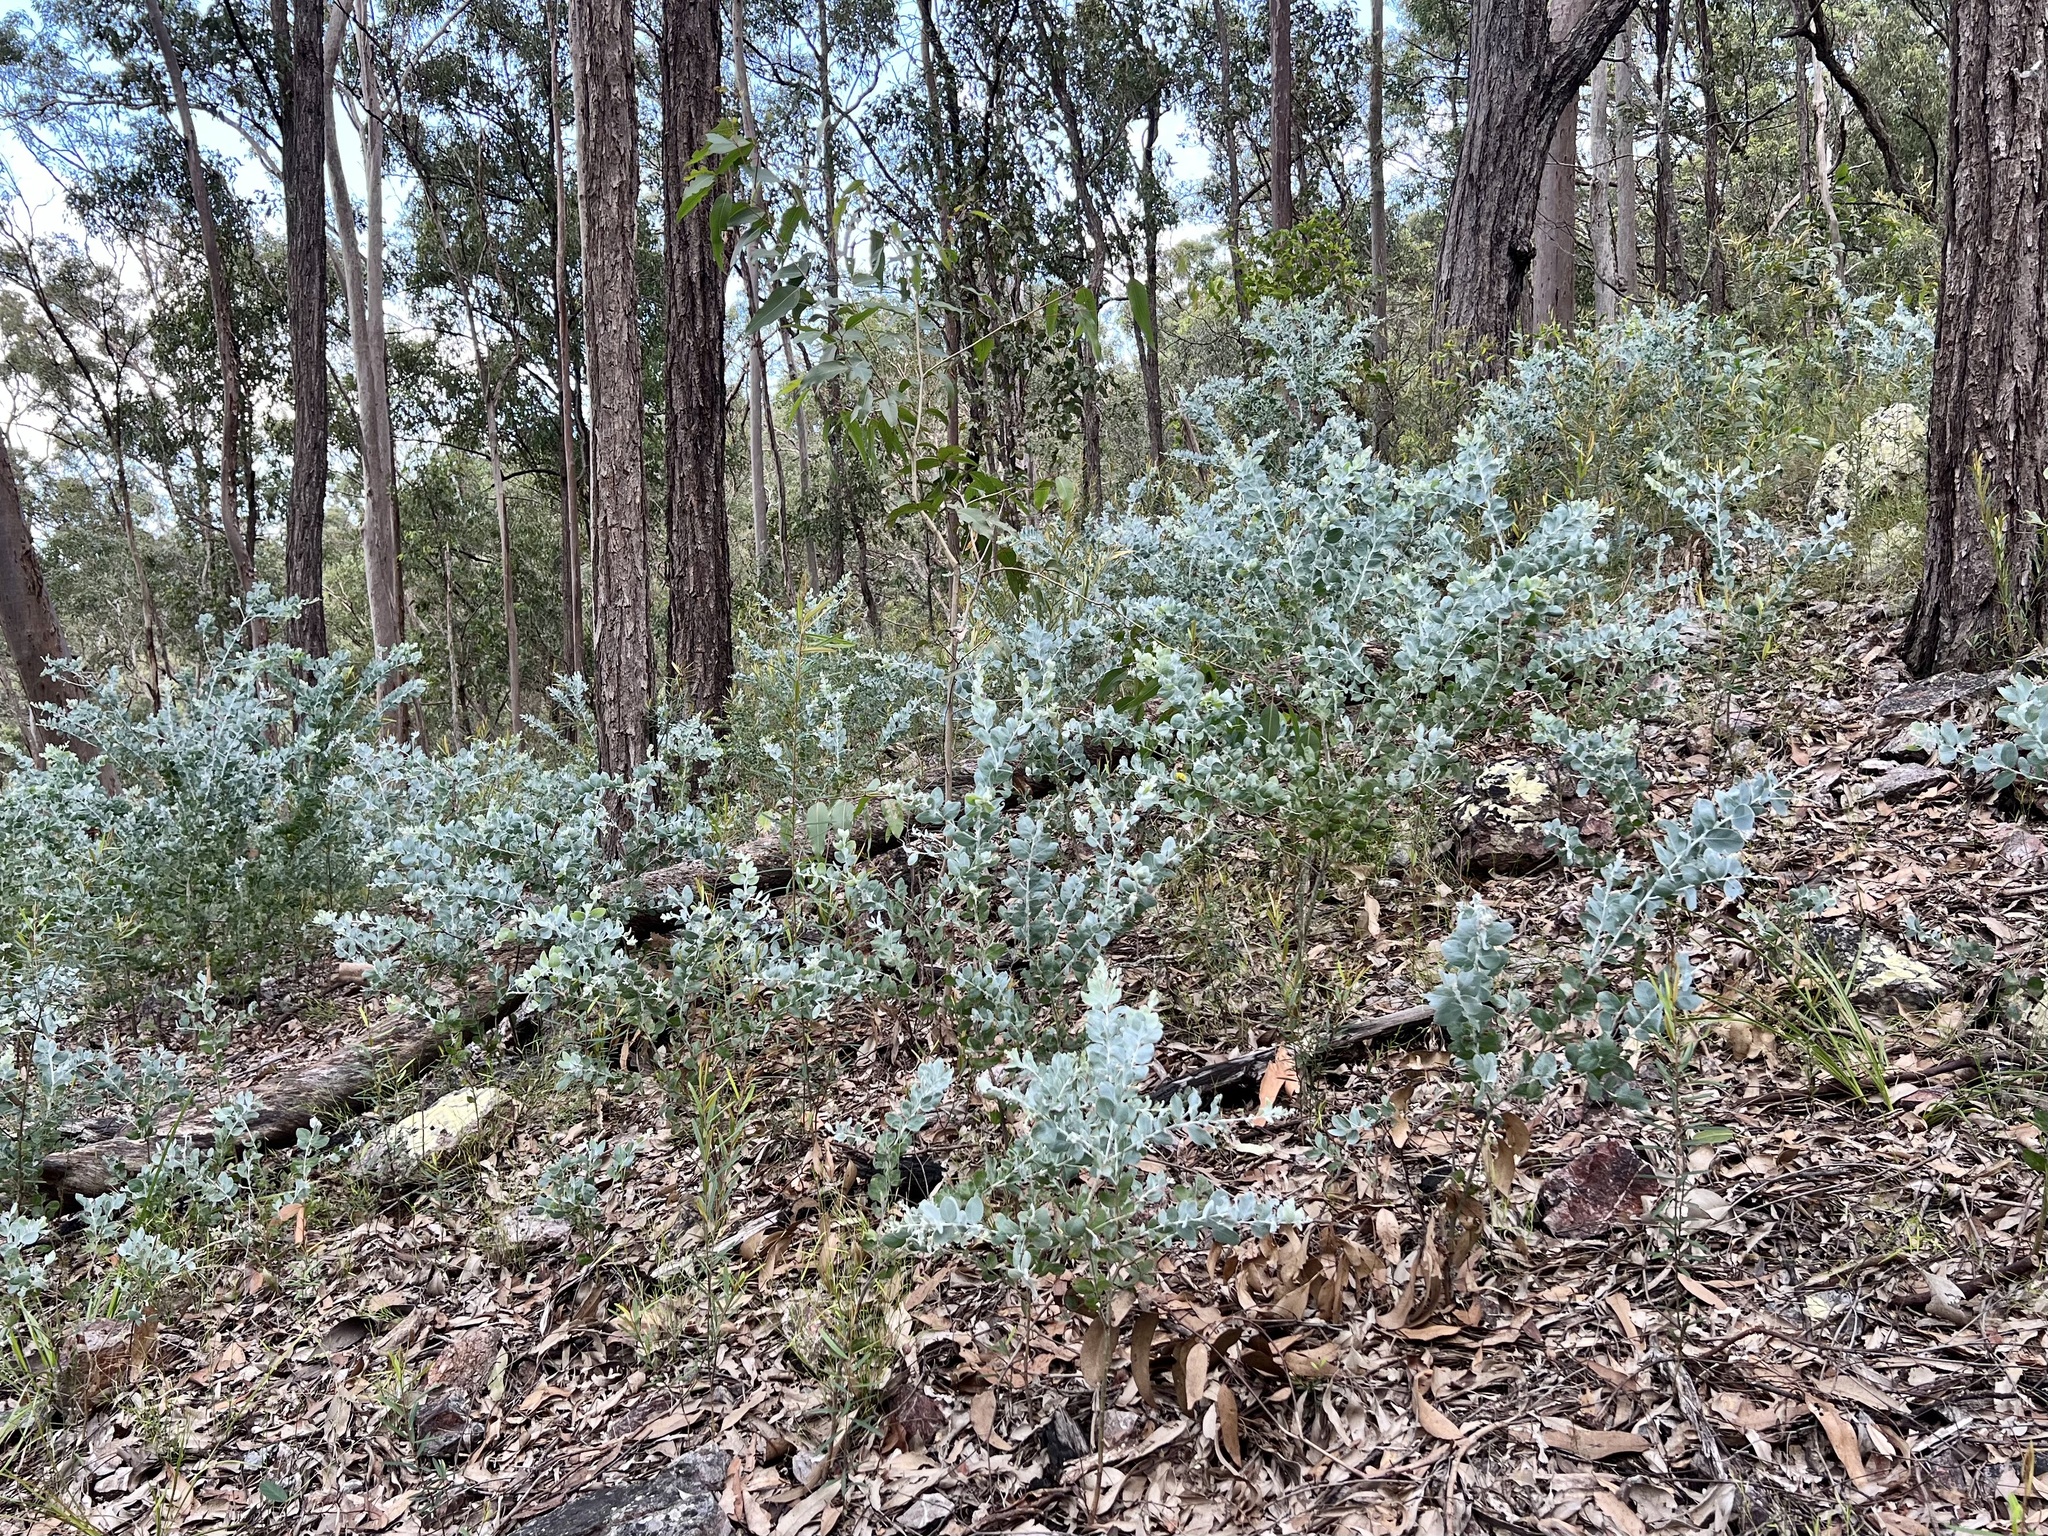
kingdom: Plantae
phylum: Tracheophyta
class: Magnoliopsida
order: Fabales
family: Fabaceae
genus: Acacia
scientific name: Acacia podalyriifolia
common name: Pearl wattle
